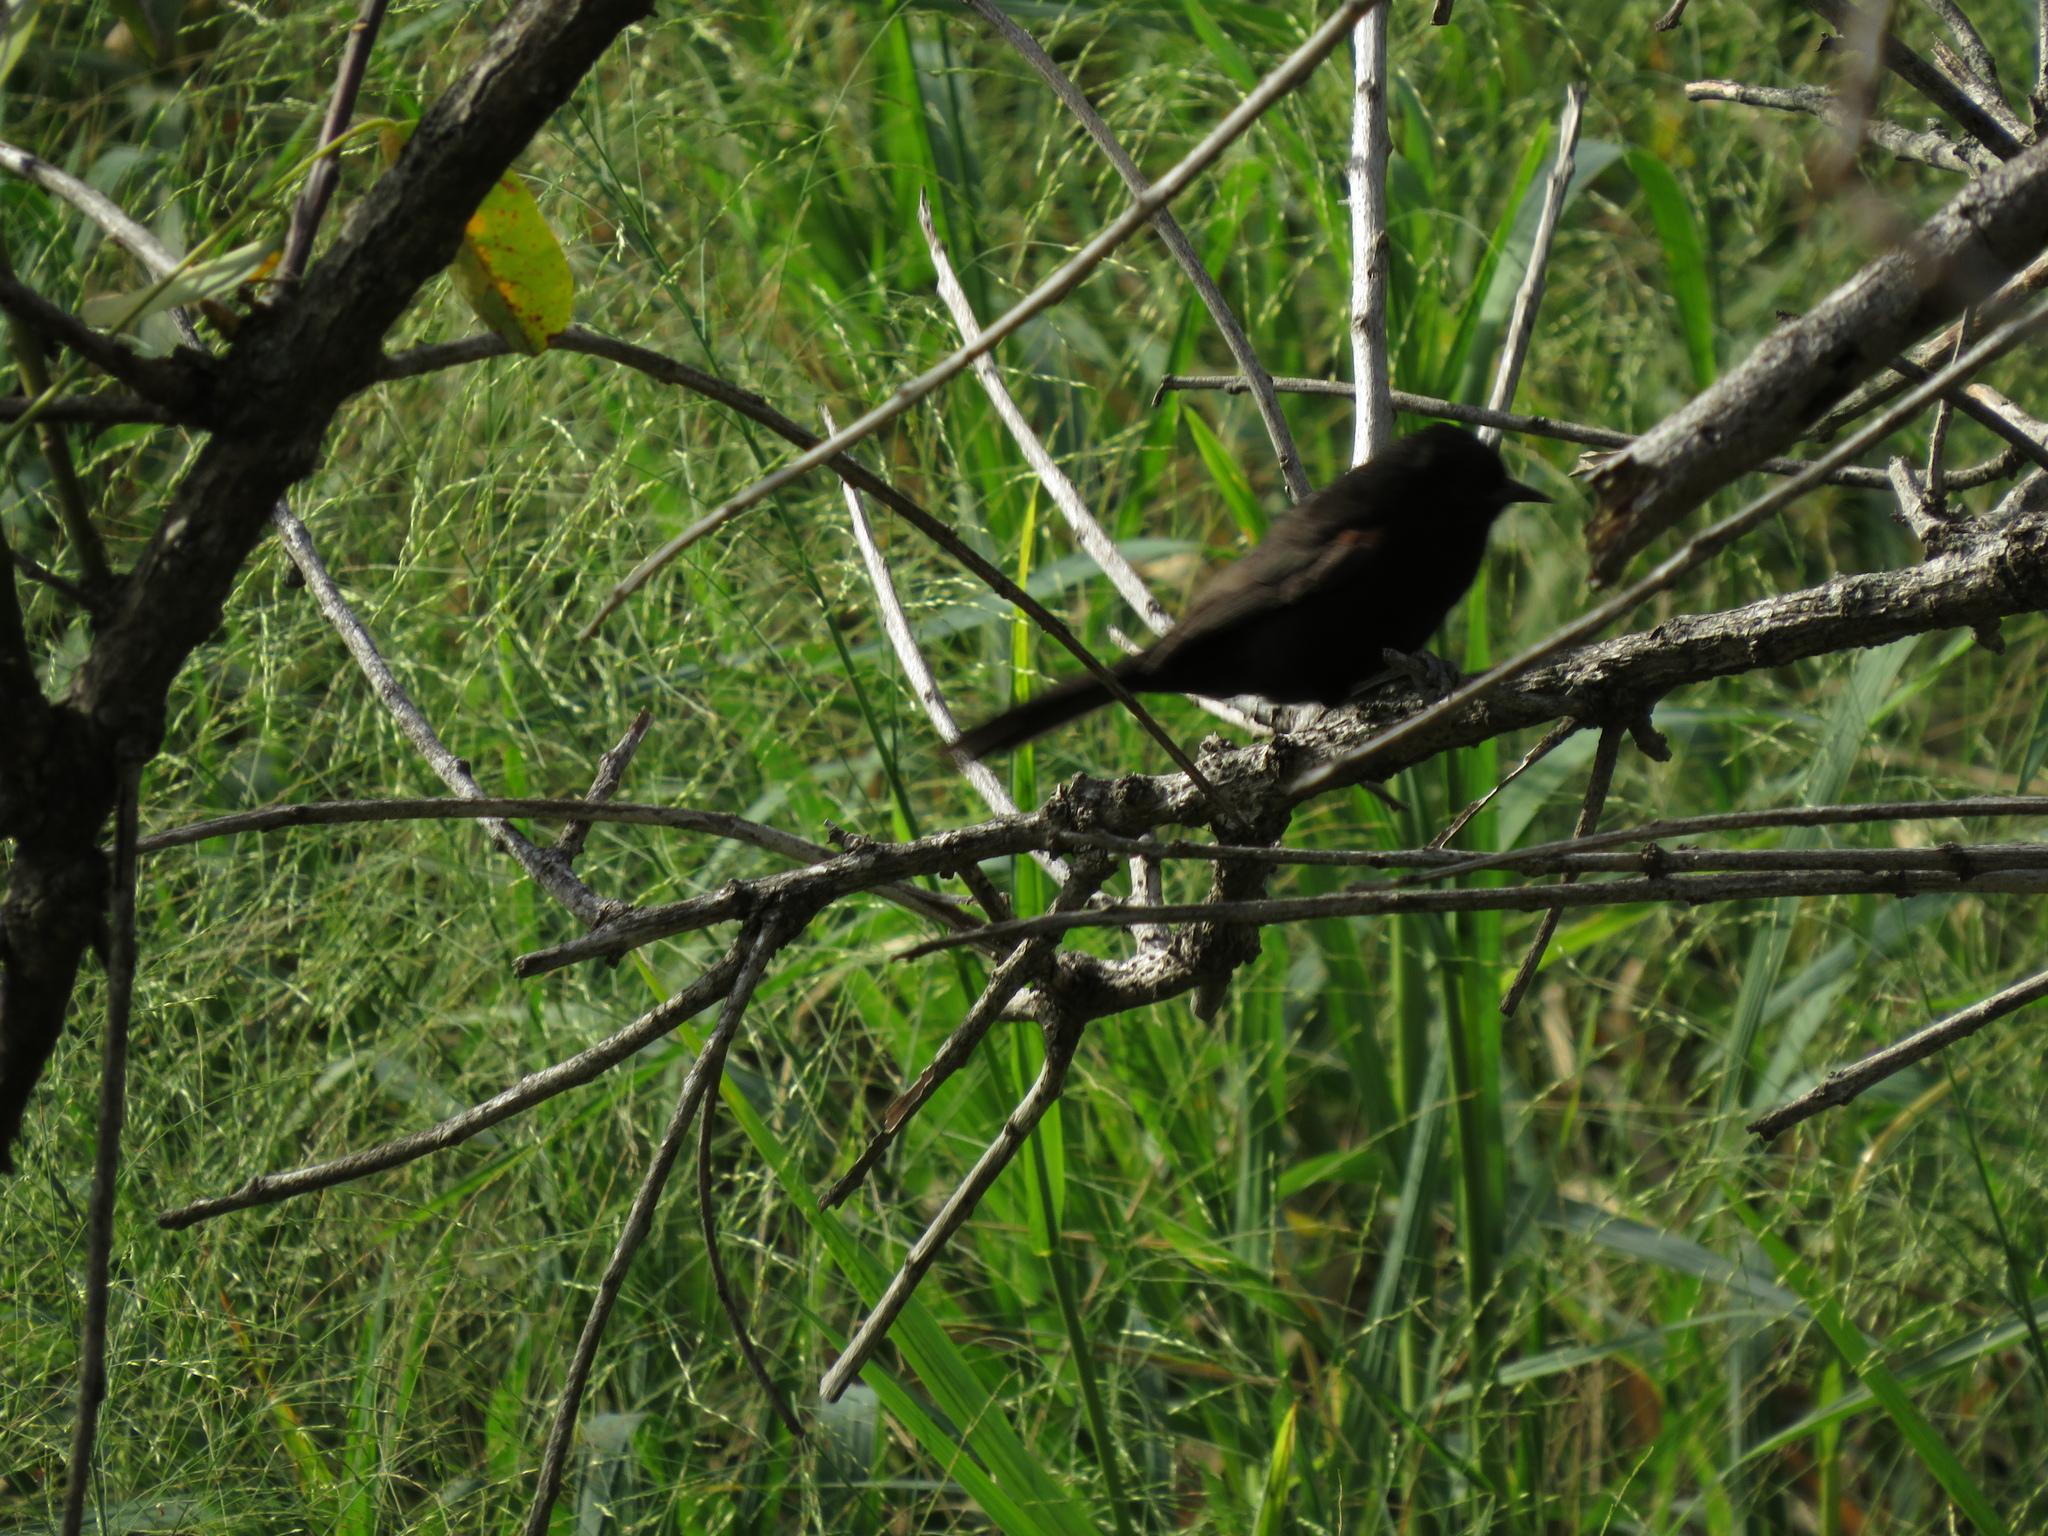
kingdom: Animalia
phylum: Chordata
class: Aves
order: Passeriformes
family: Icteridae
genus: Icterus
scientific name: Icterus cayanensis
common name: Epaulet oriole
